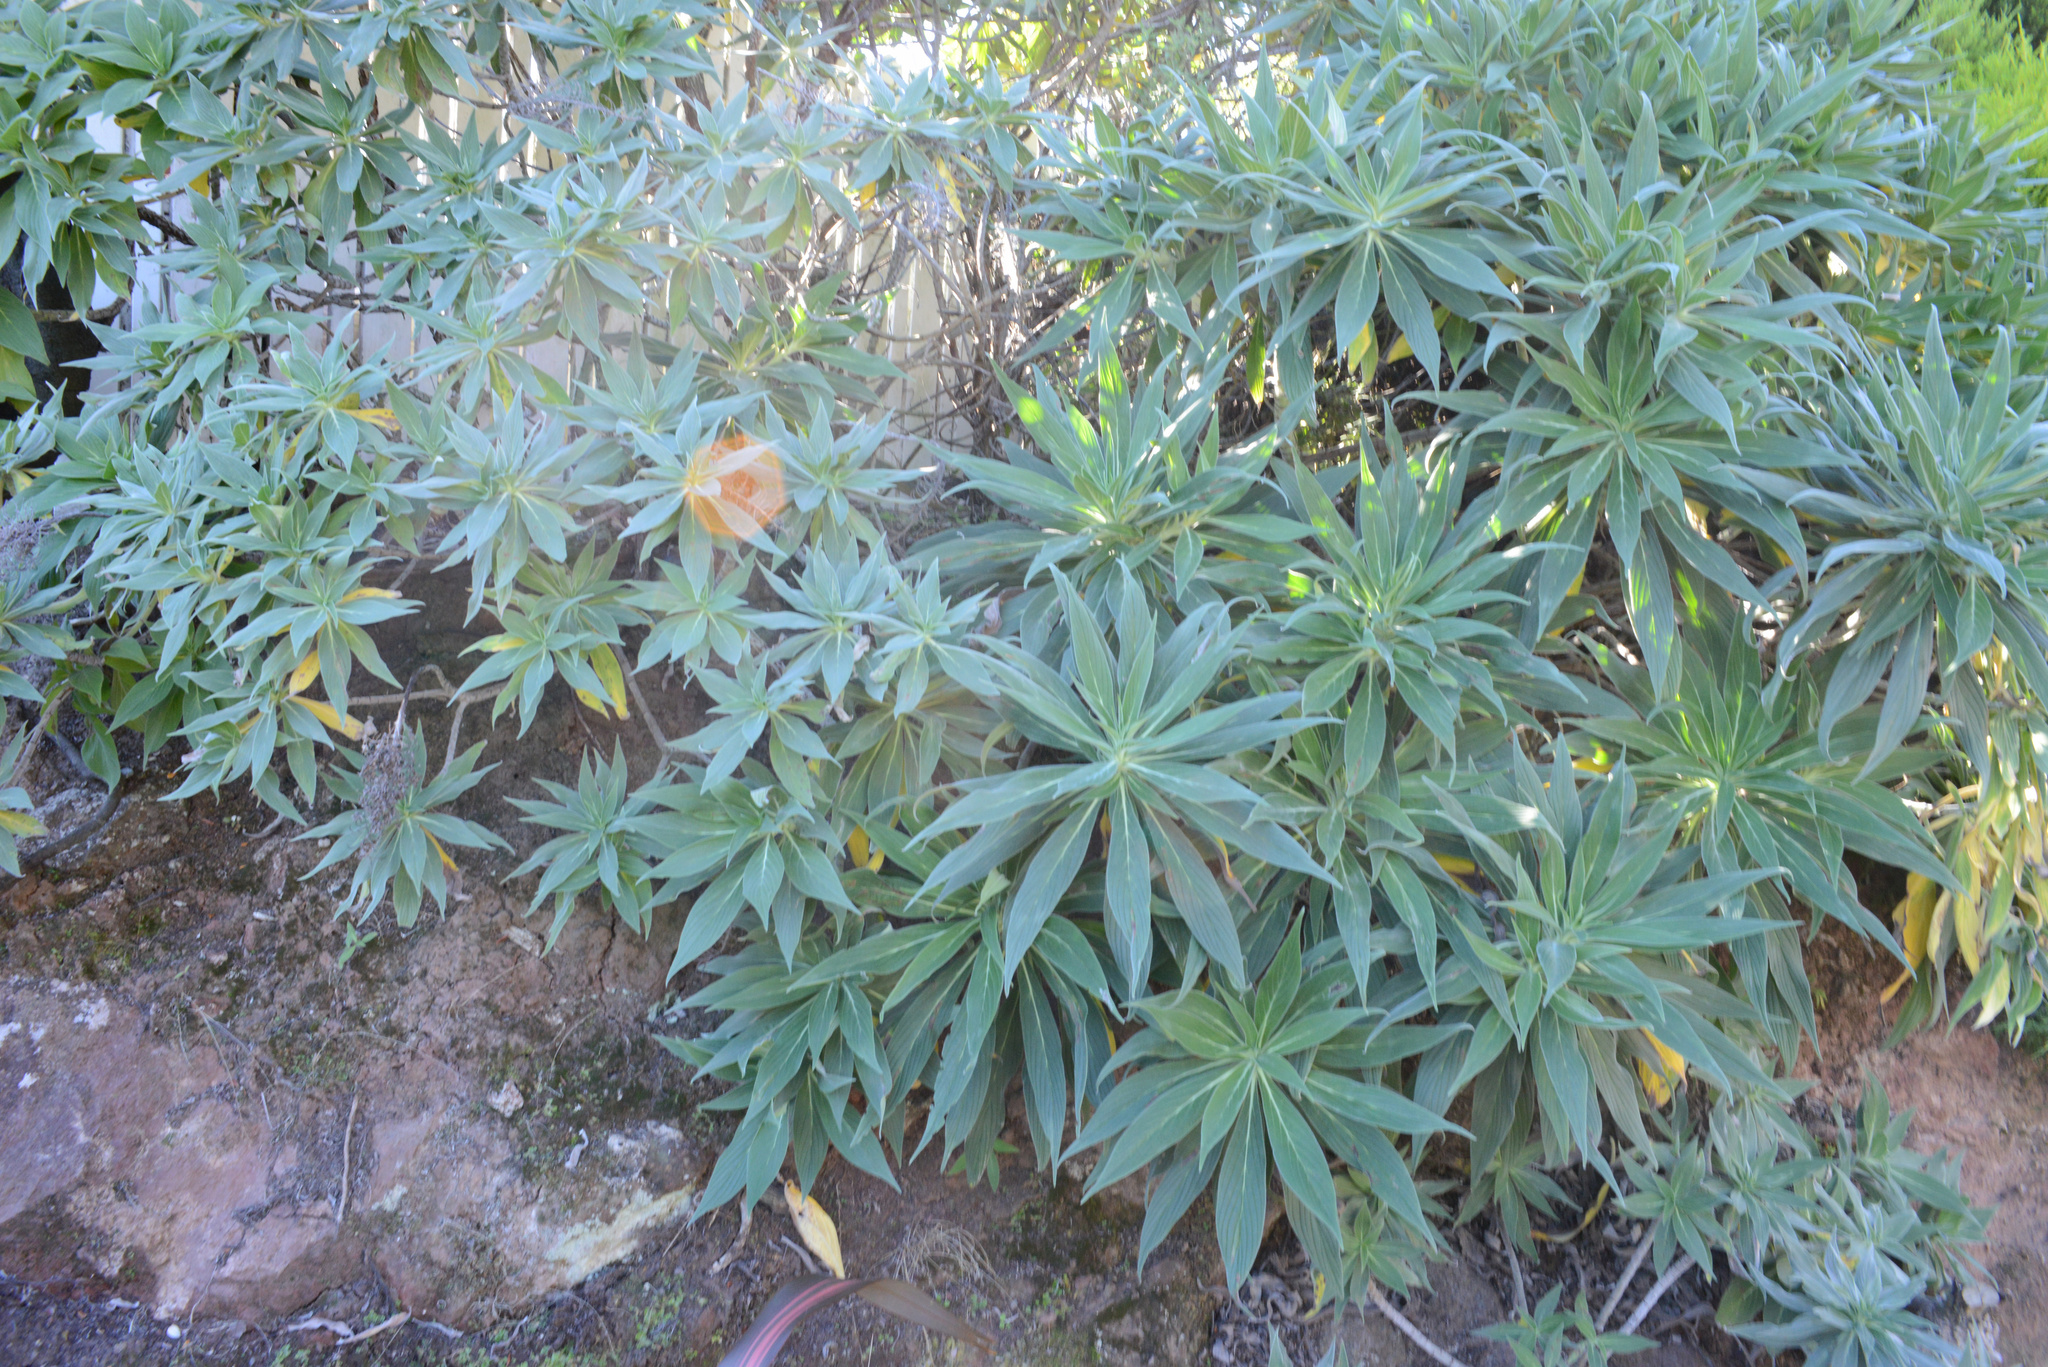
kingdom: Plantae
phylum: Tracheophyta
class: Magnoliopsida
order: Boraginales
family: Boraginaceae
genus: Echium
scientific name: Echium candicans
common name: Pride of madeira
